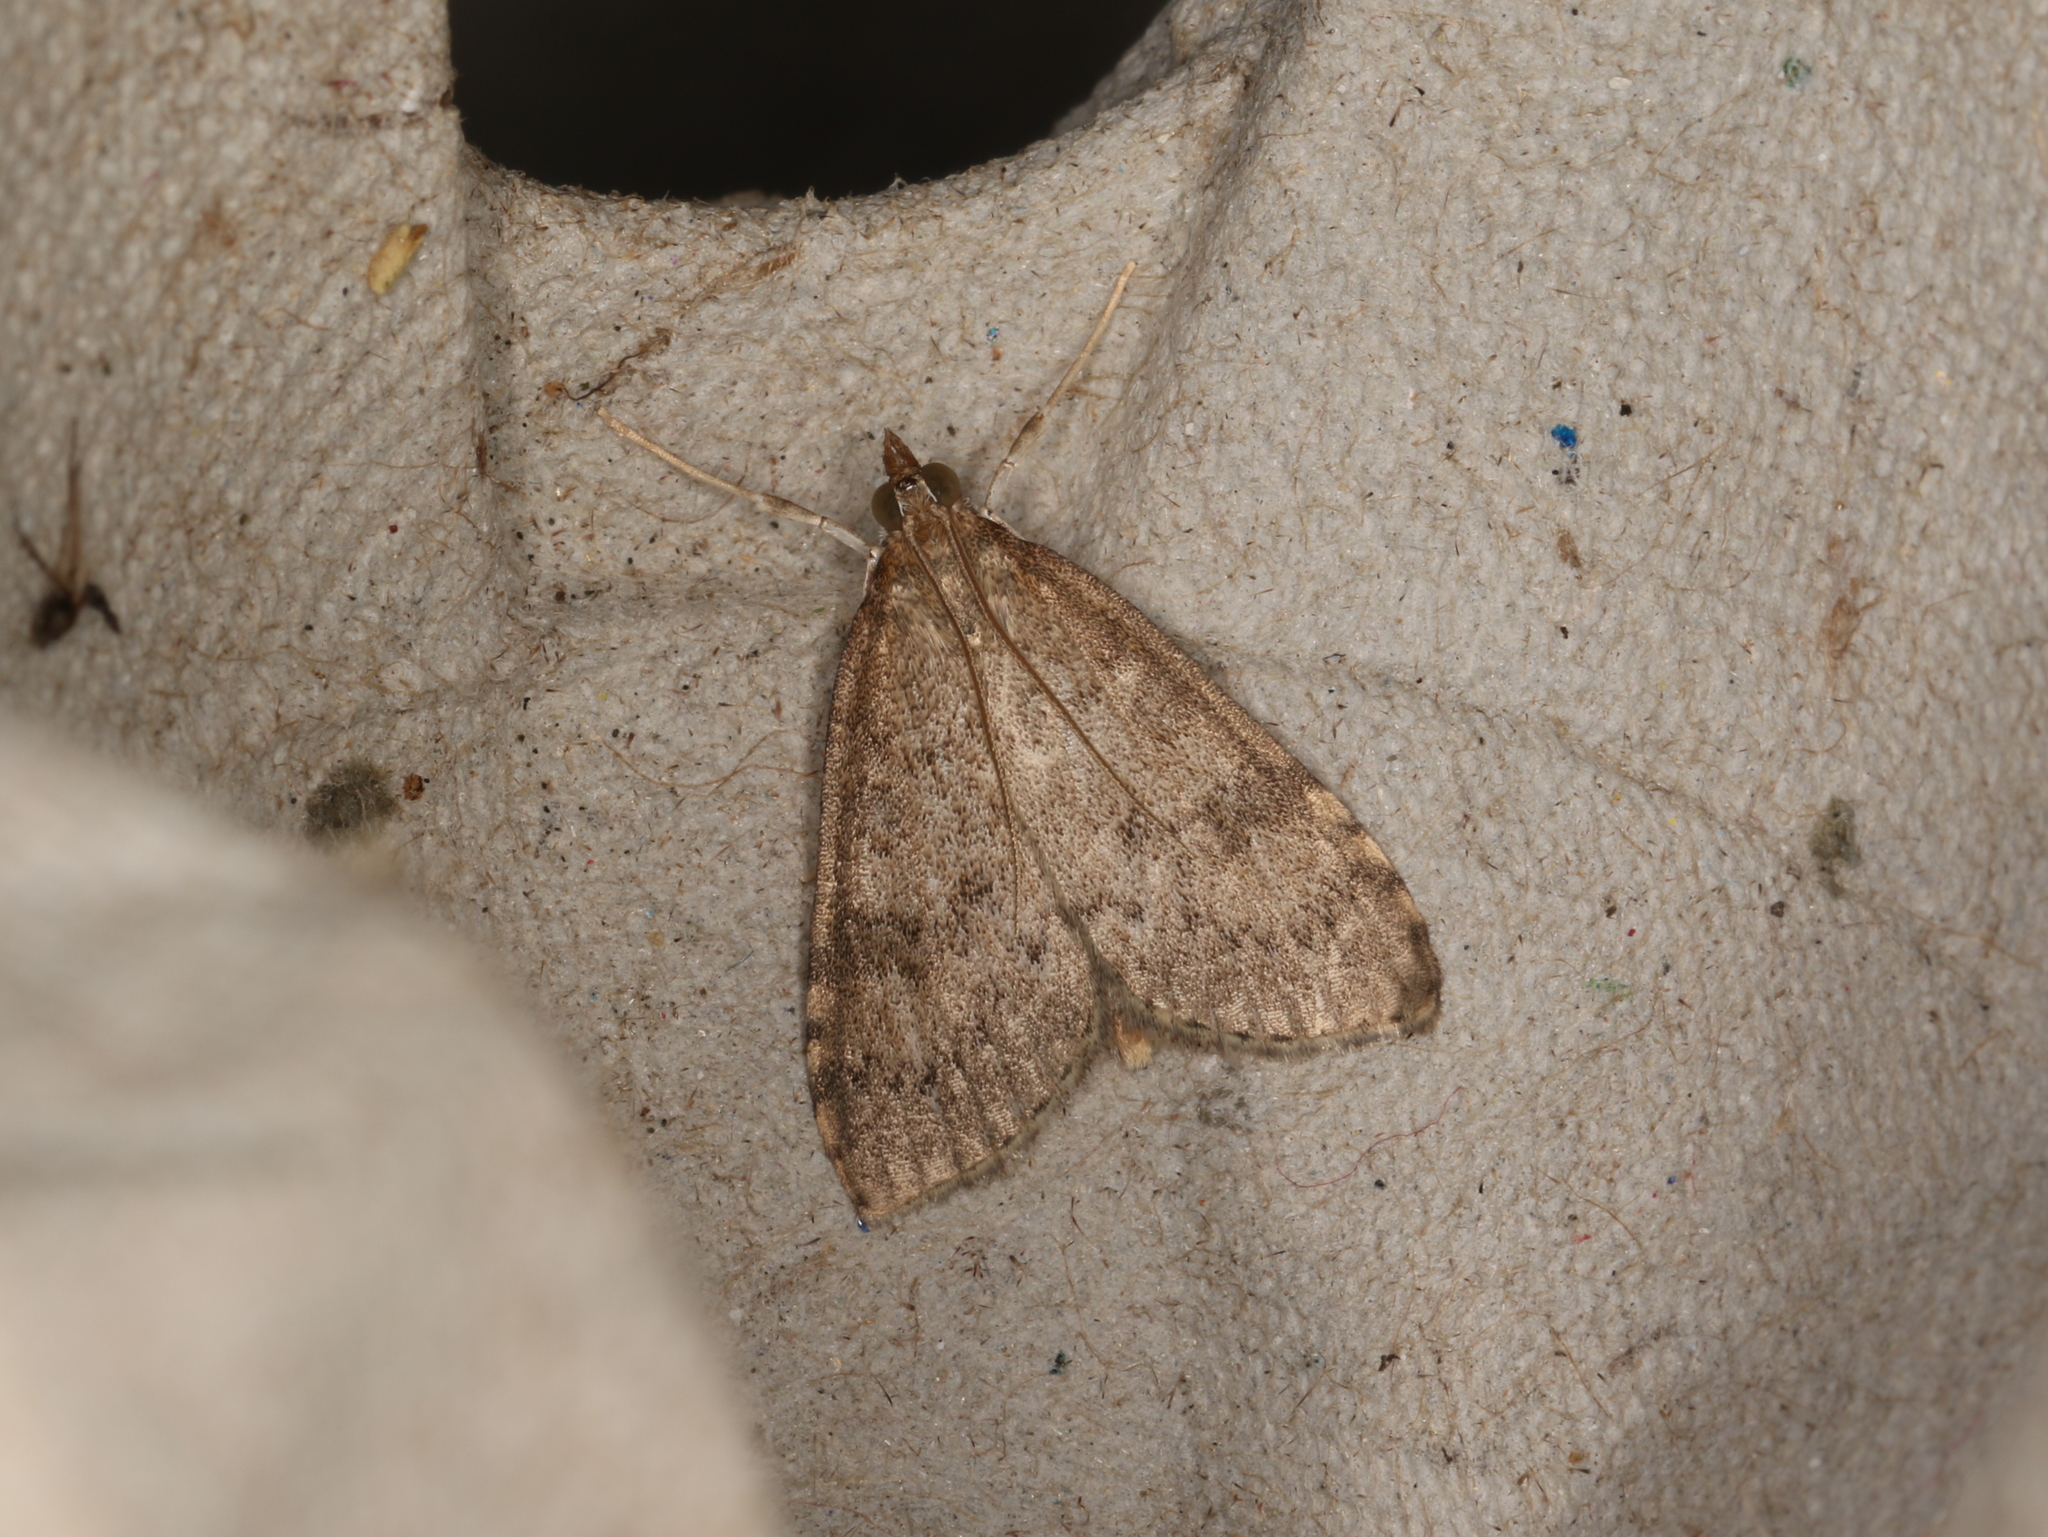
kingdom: Animalia
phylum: Arthropoda
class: Insecta
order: Lepidoptera
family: Crambidae
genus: Udea
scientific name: Udea prunalis
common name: Dusky pearl
